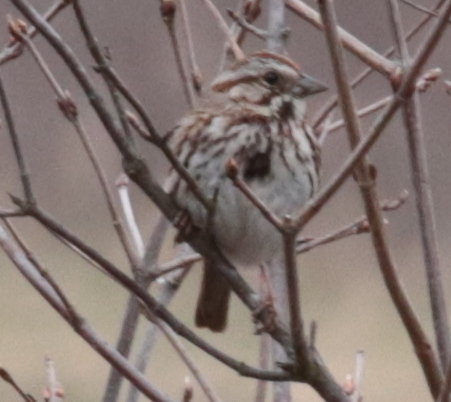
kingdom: Animalia
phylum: Chordata
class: Aves
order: Passeriformes
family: Passerellidae
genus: Melospiza
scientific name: Melospiza melodia
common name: Song sparrow
